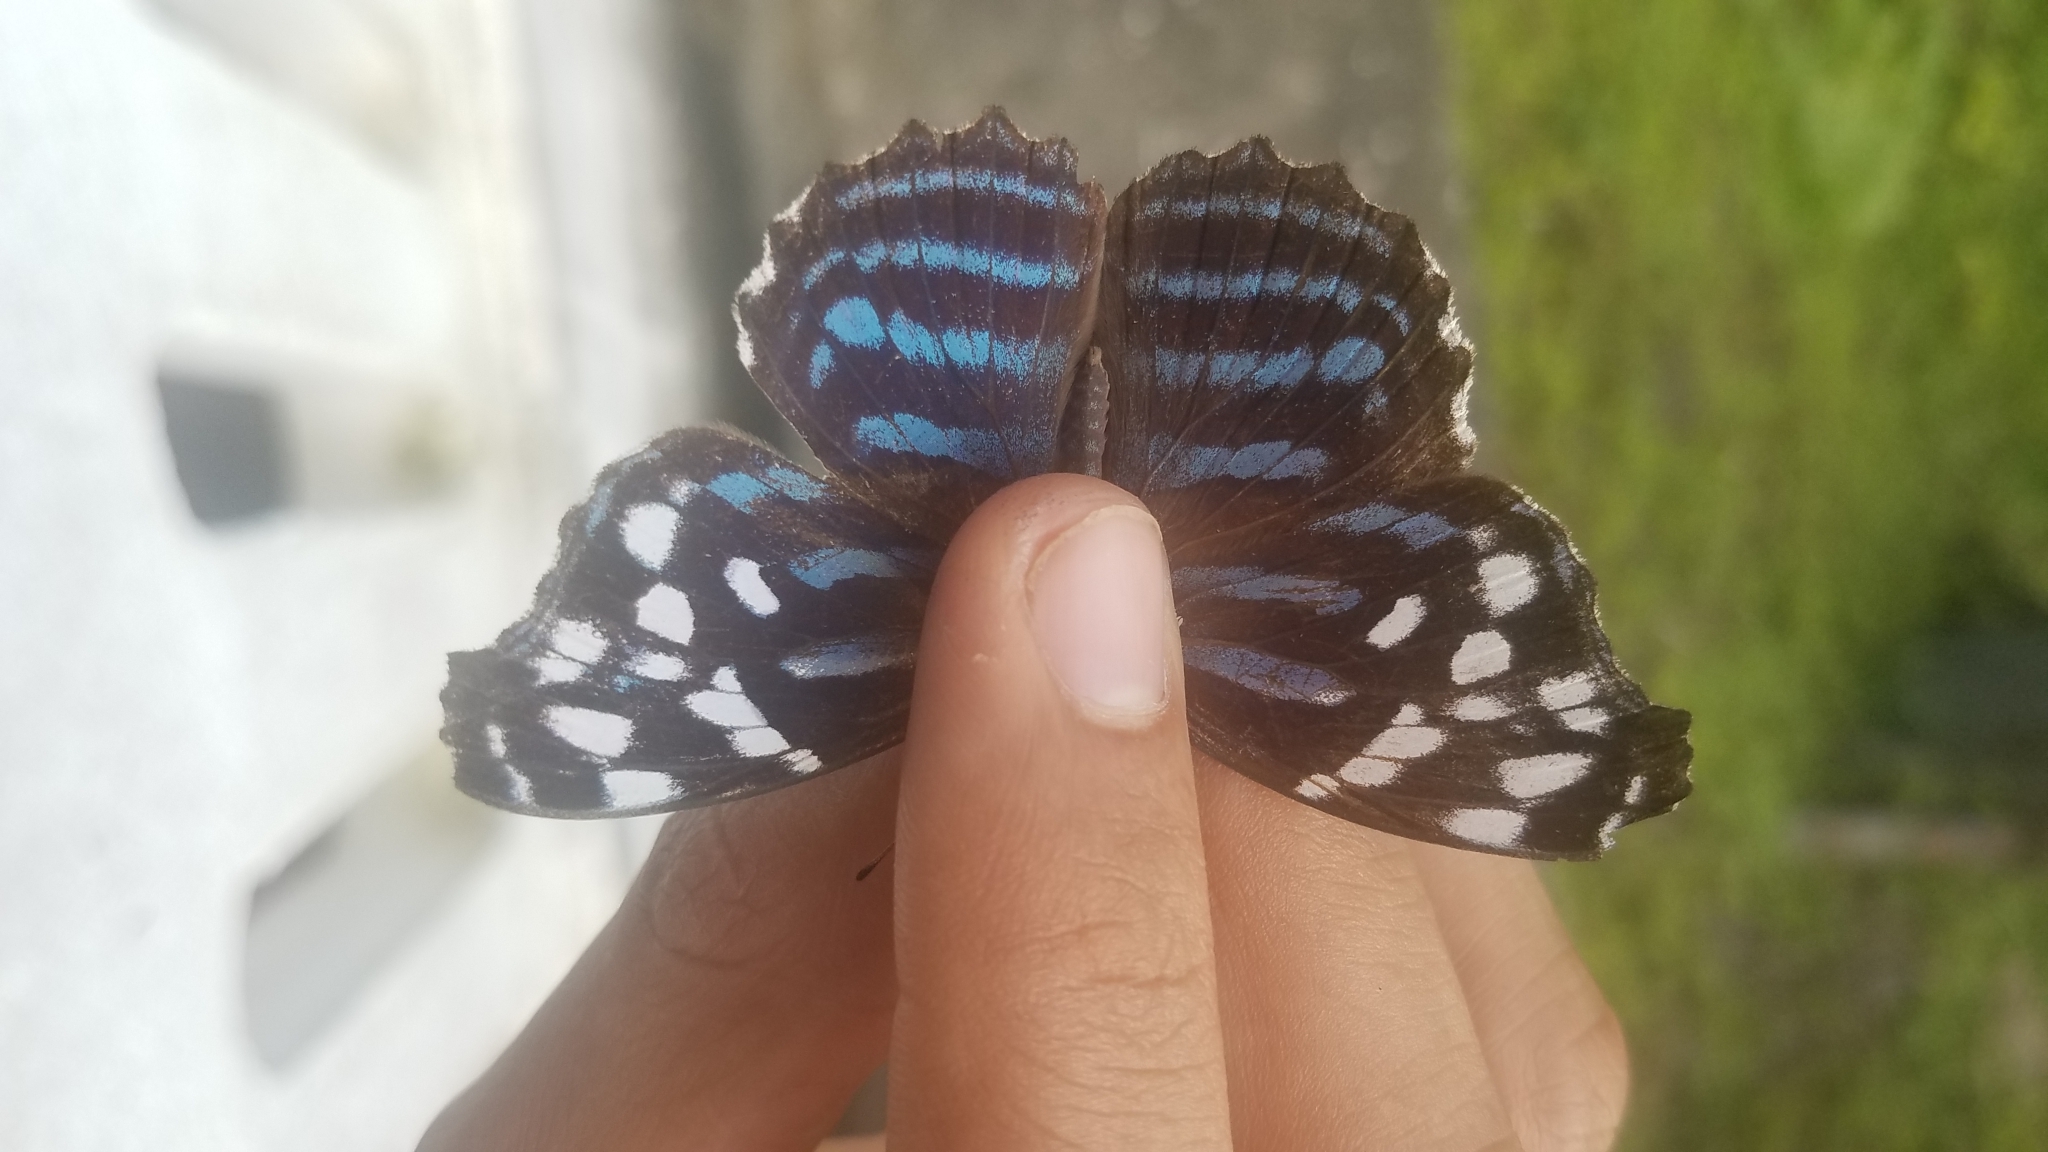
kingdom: Animalia
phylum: Arthropoda
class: Insecta
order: Lepidoptera
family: Nymphalidae
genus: Myscelia
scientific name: Myscelia ethusa
